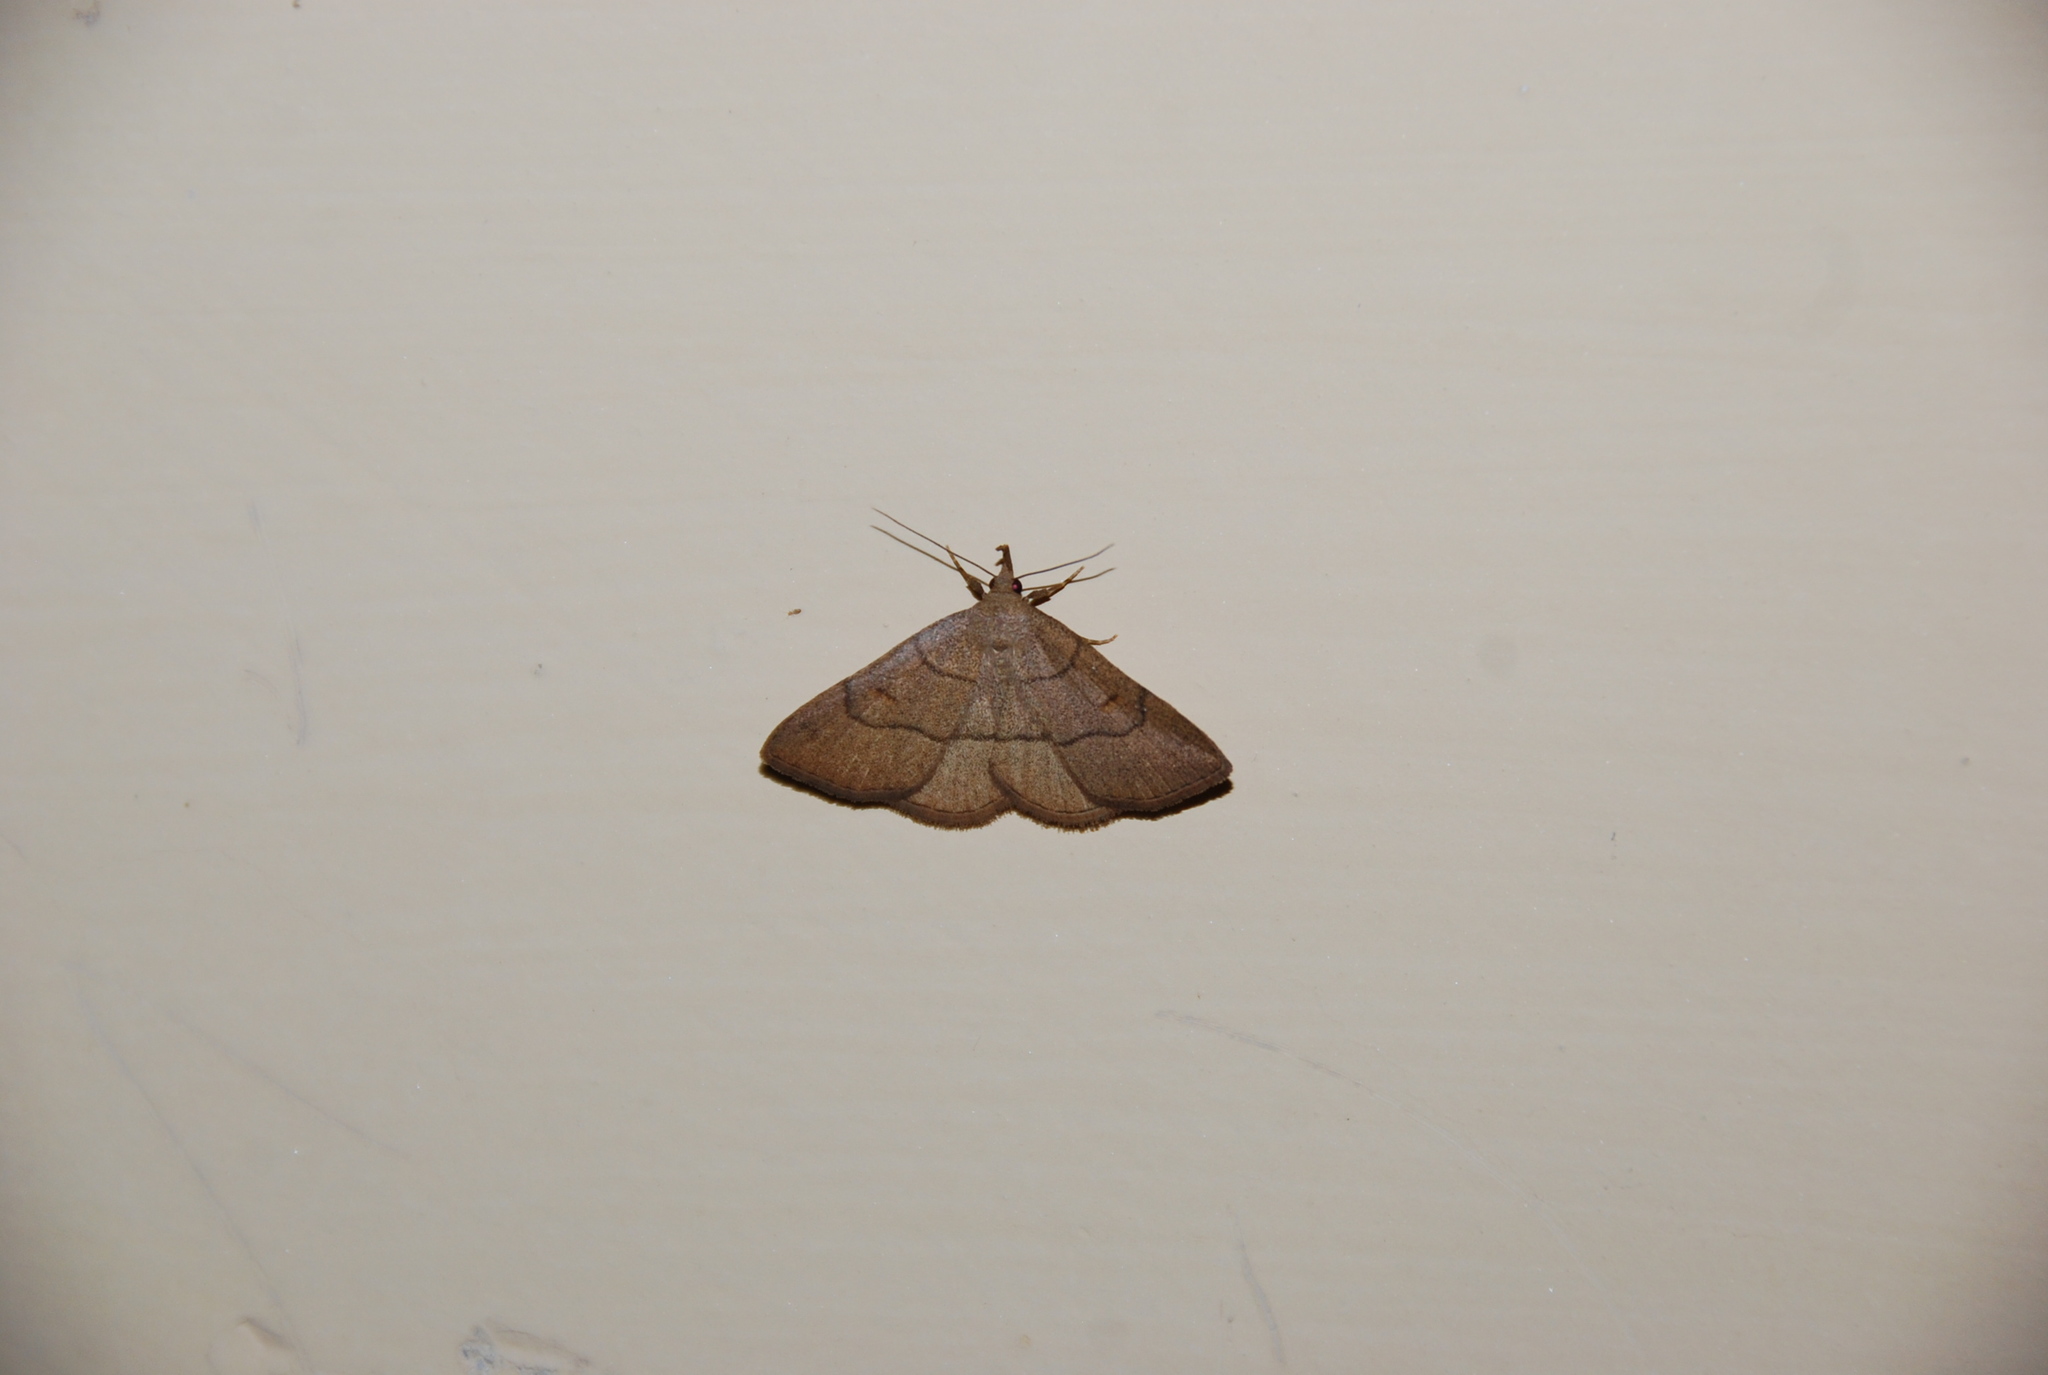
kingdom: Animalia
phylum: Arthropoda
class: Insecta
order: Lepidoptera
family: Erebidae
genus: Paracolax
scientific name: Paracolax tristalis
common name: Clay fan-foot
